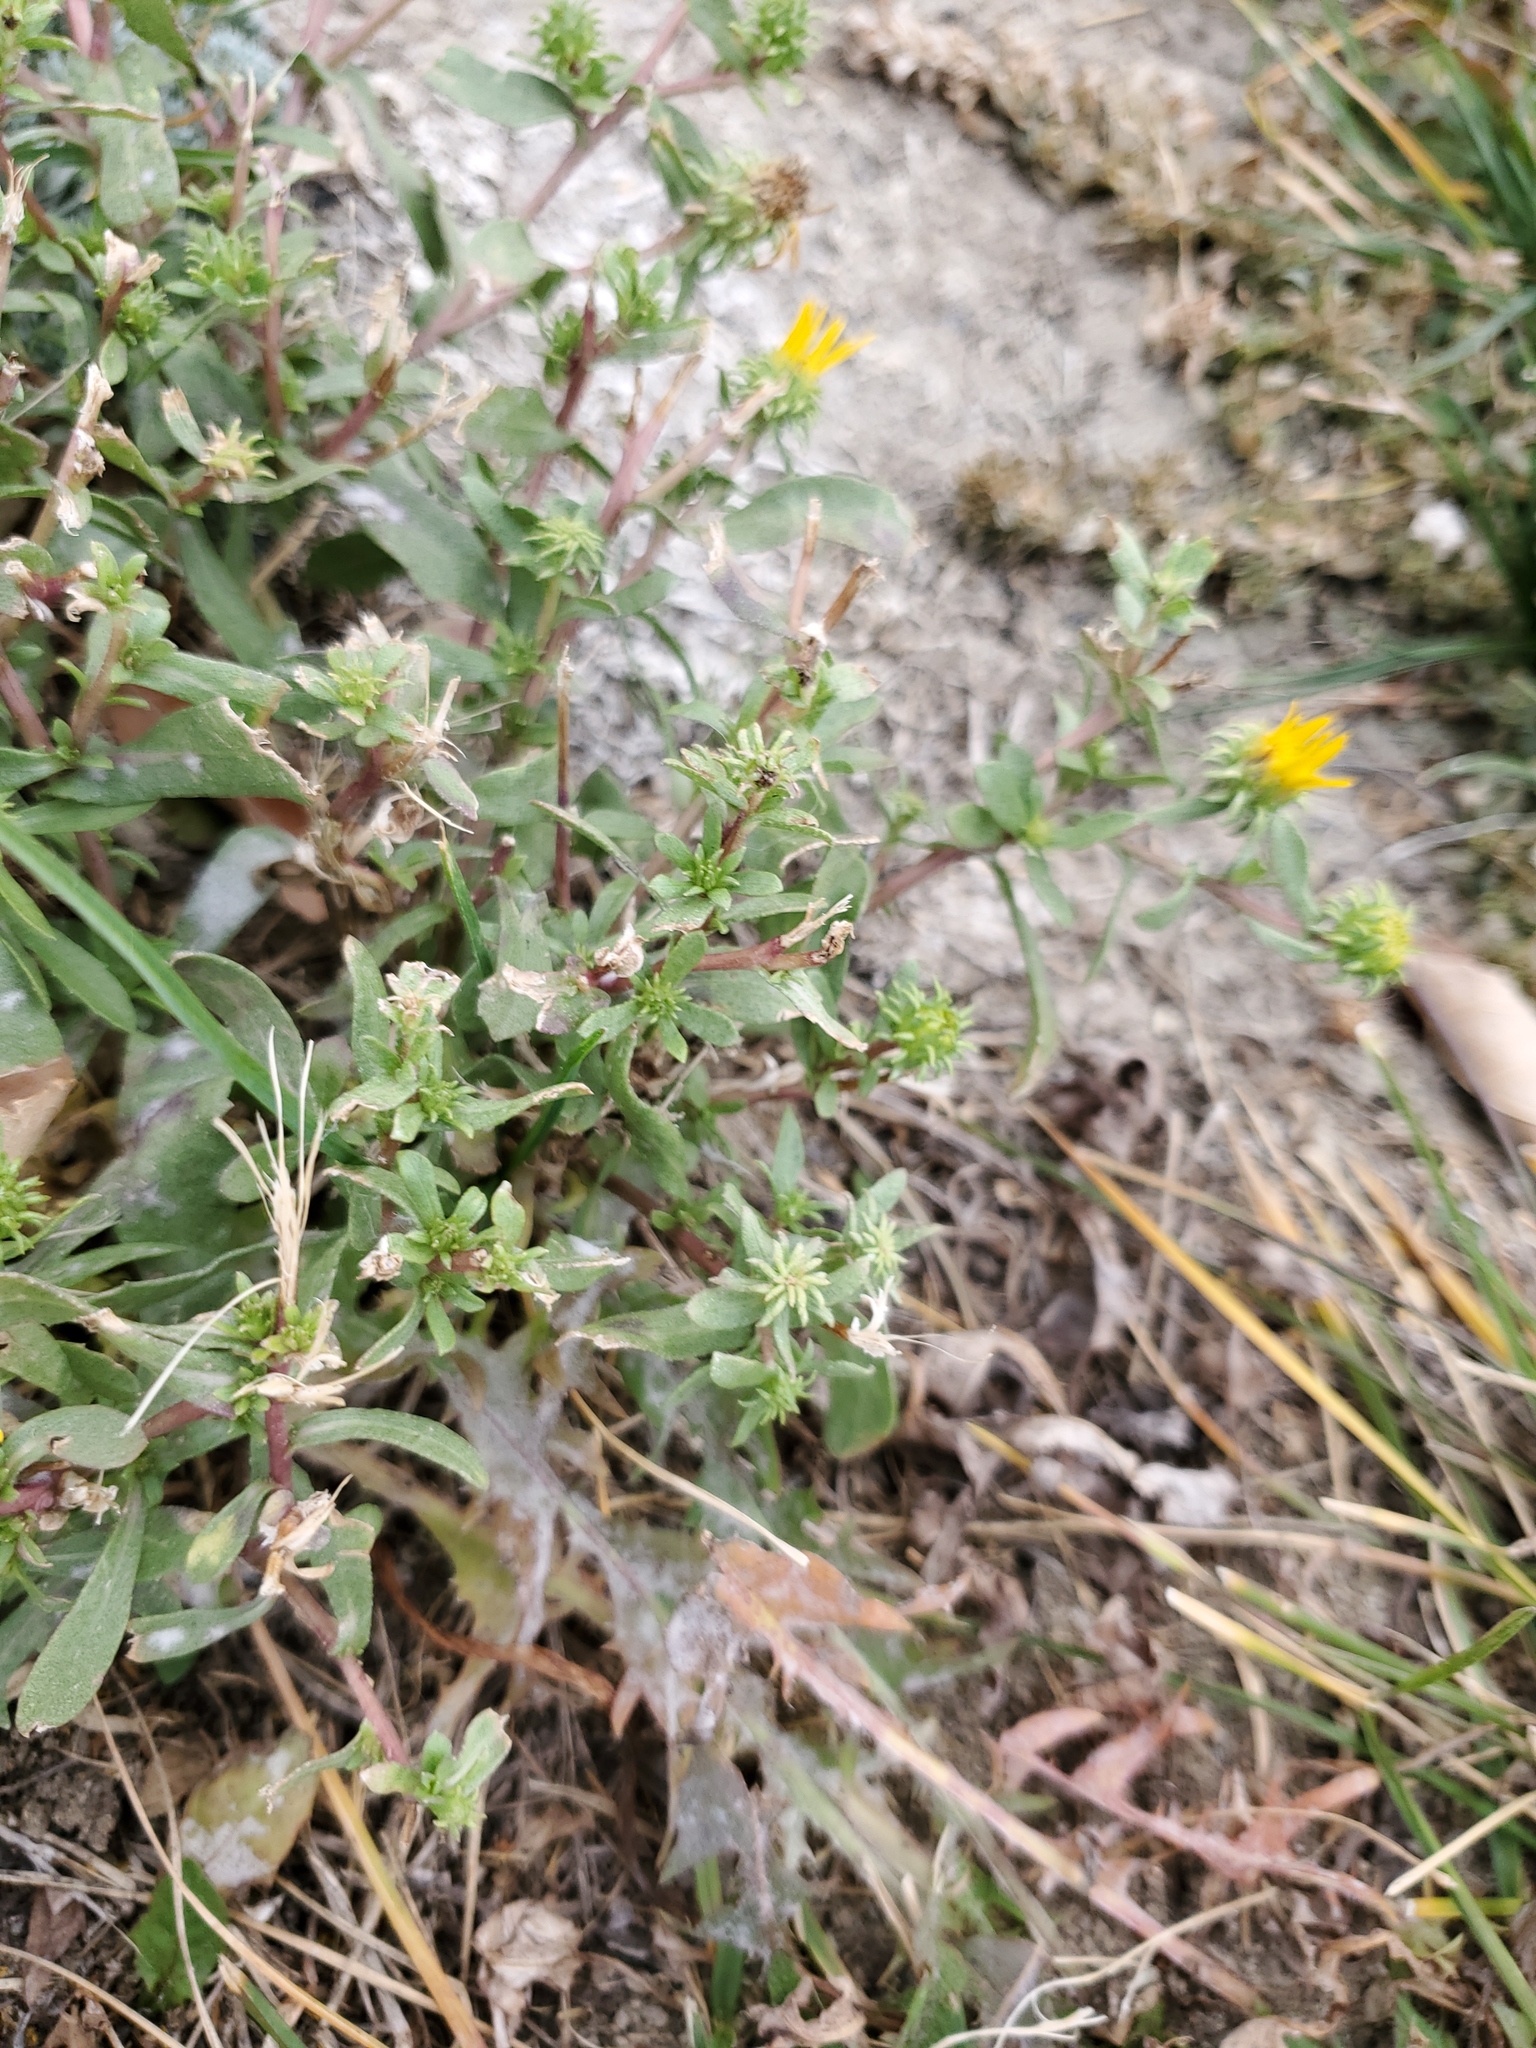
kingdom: Plantae
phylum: Tracheophyta
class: Magnoliopsida
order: Asterales
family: Asteraceae
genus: Grindelia
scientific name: Grindelia squarrosa
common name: Curly-cup gumweed
